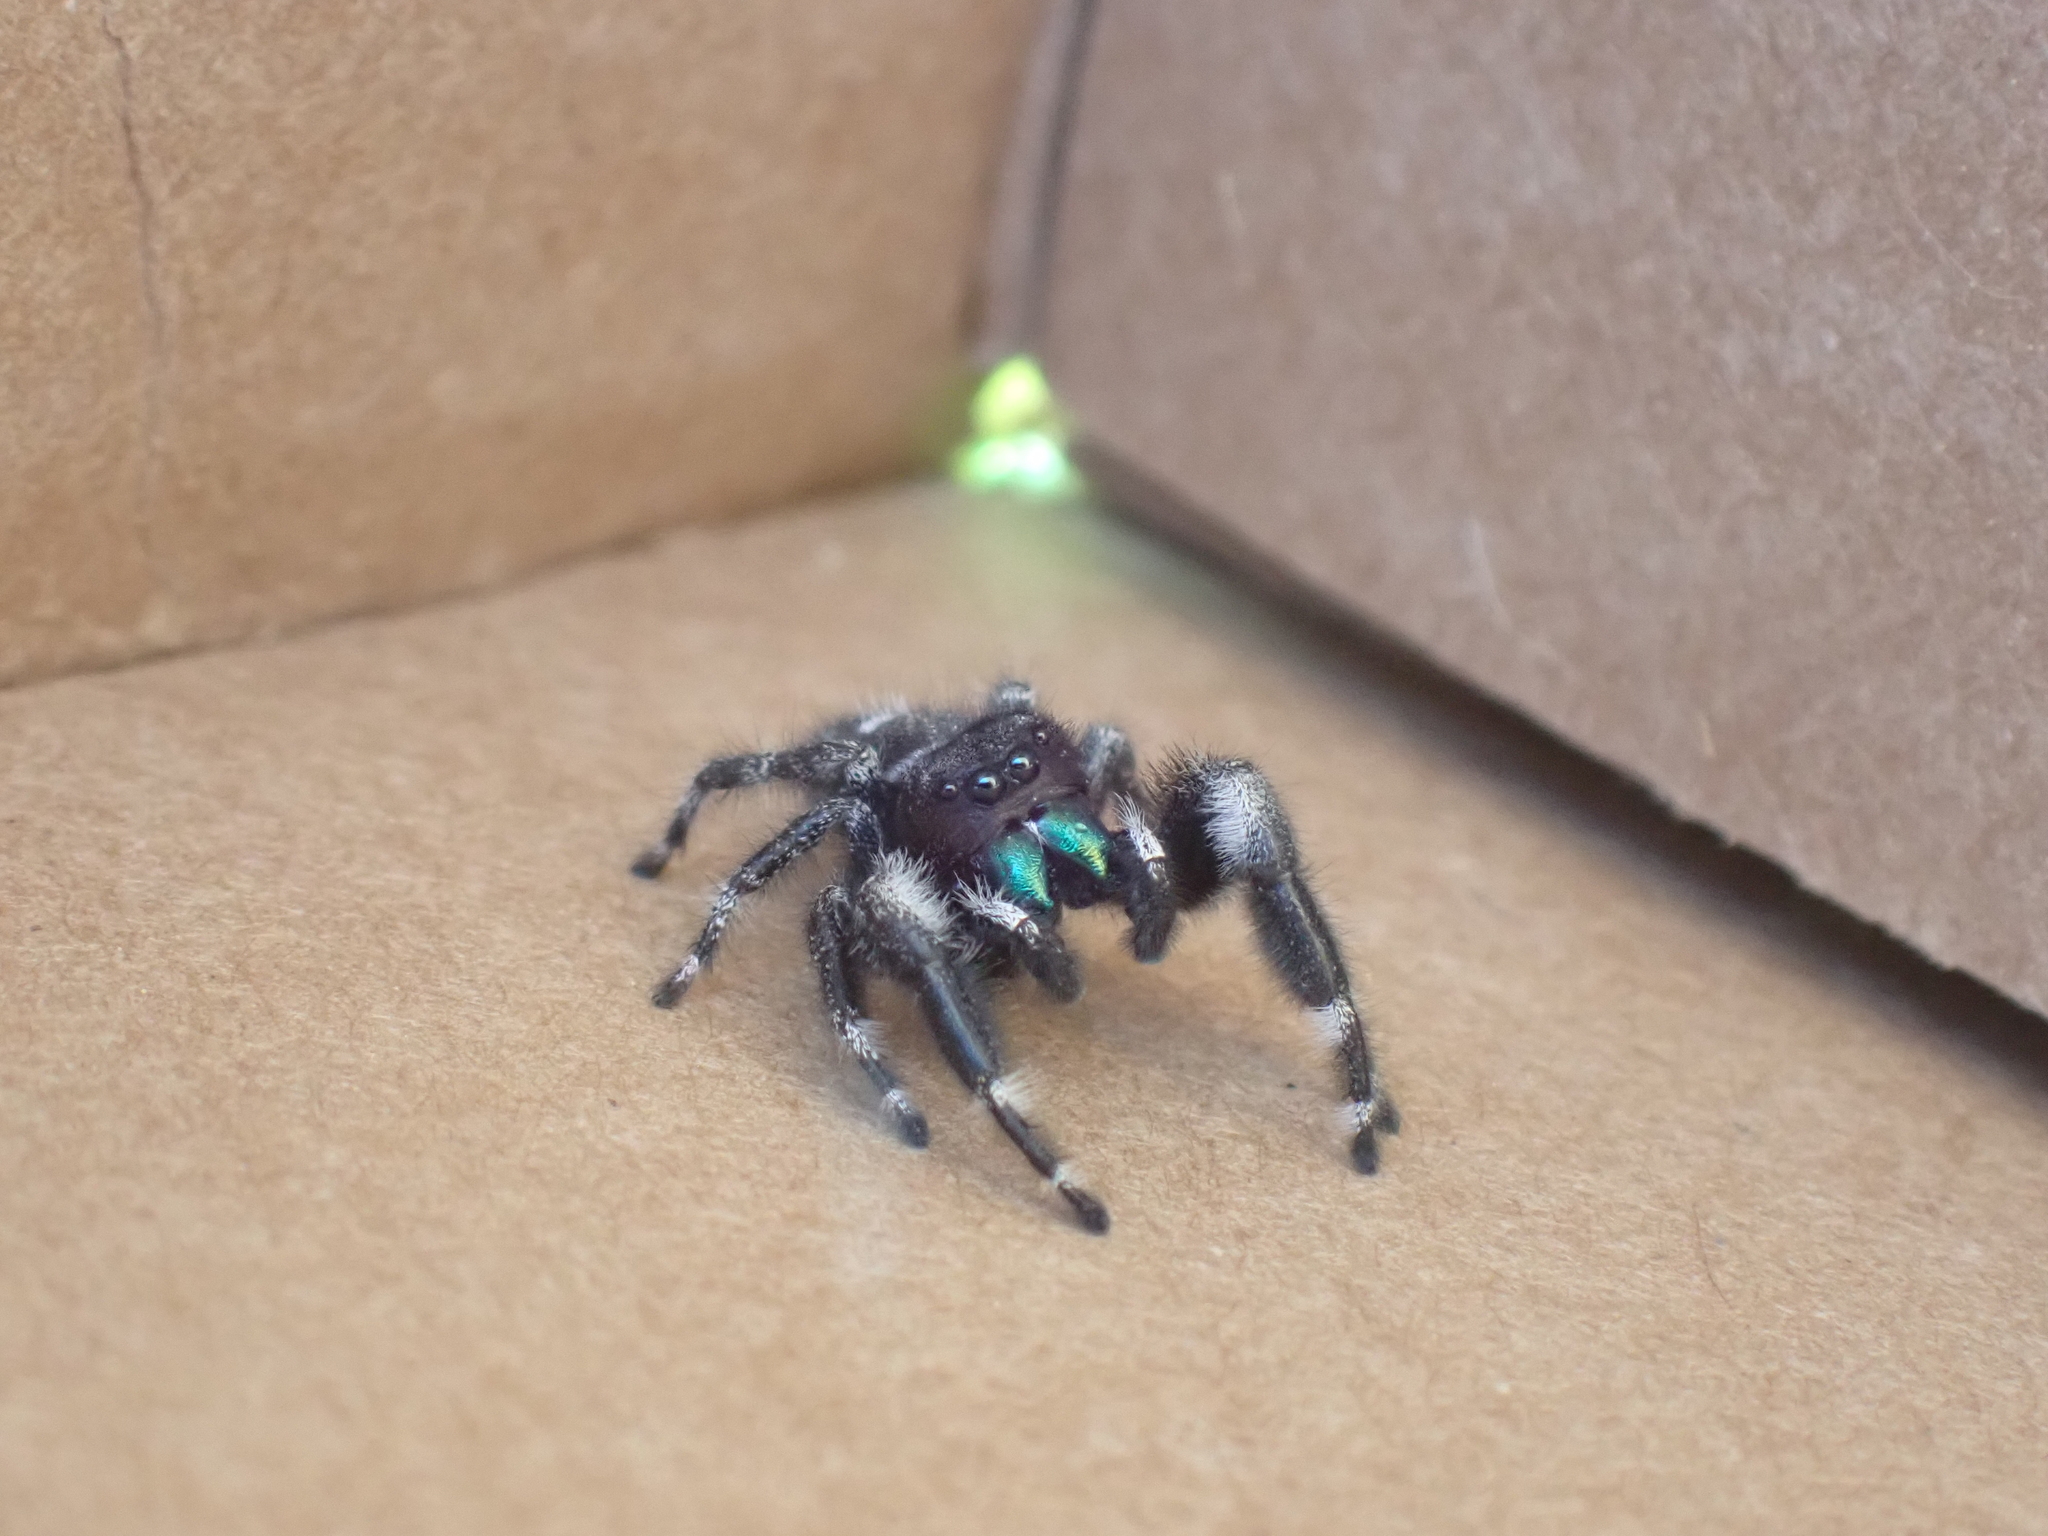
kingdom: Animalia
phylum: Arthropoda
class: Arachnida
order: Araneae
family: Salticidae
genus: Phidippus
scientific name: Phidippus audax
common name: Bold jumper
